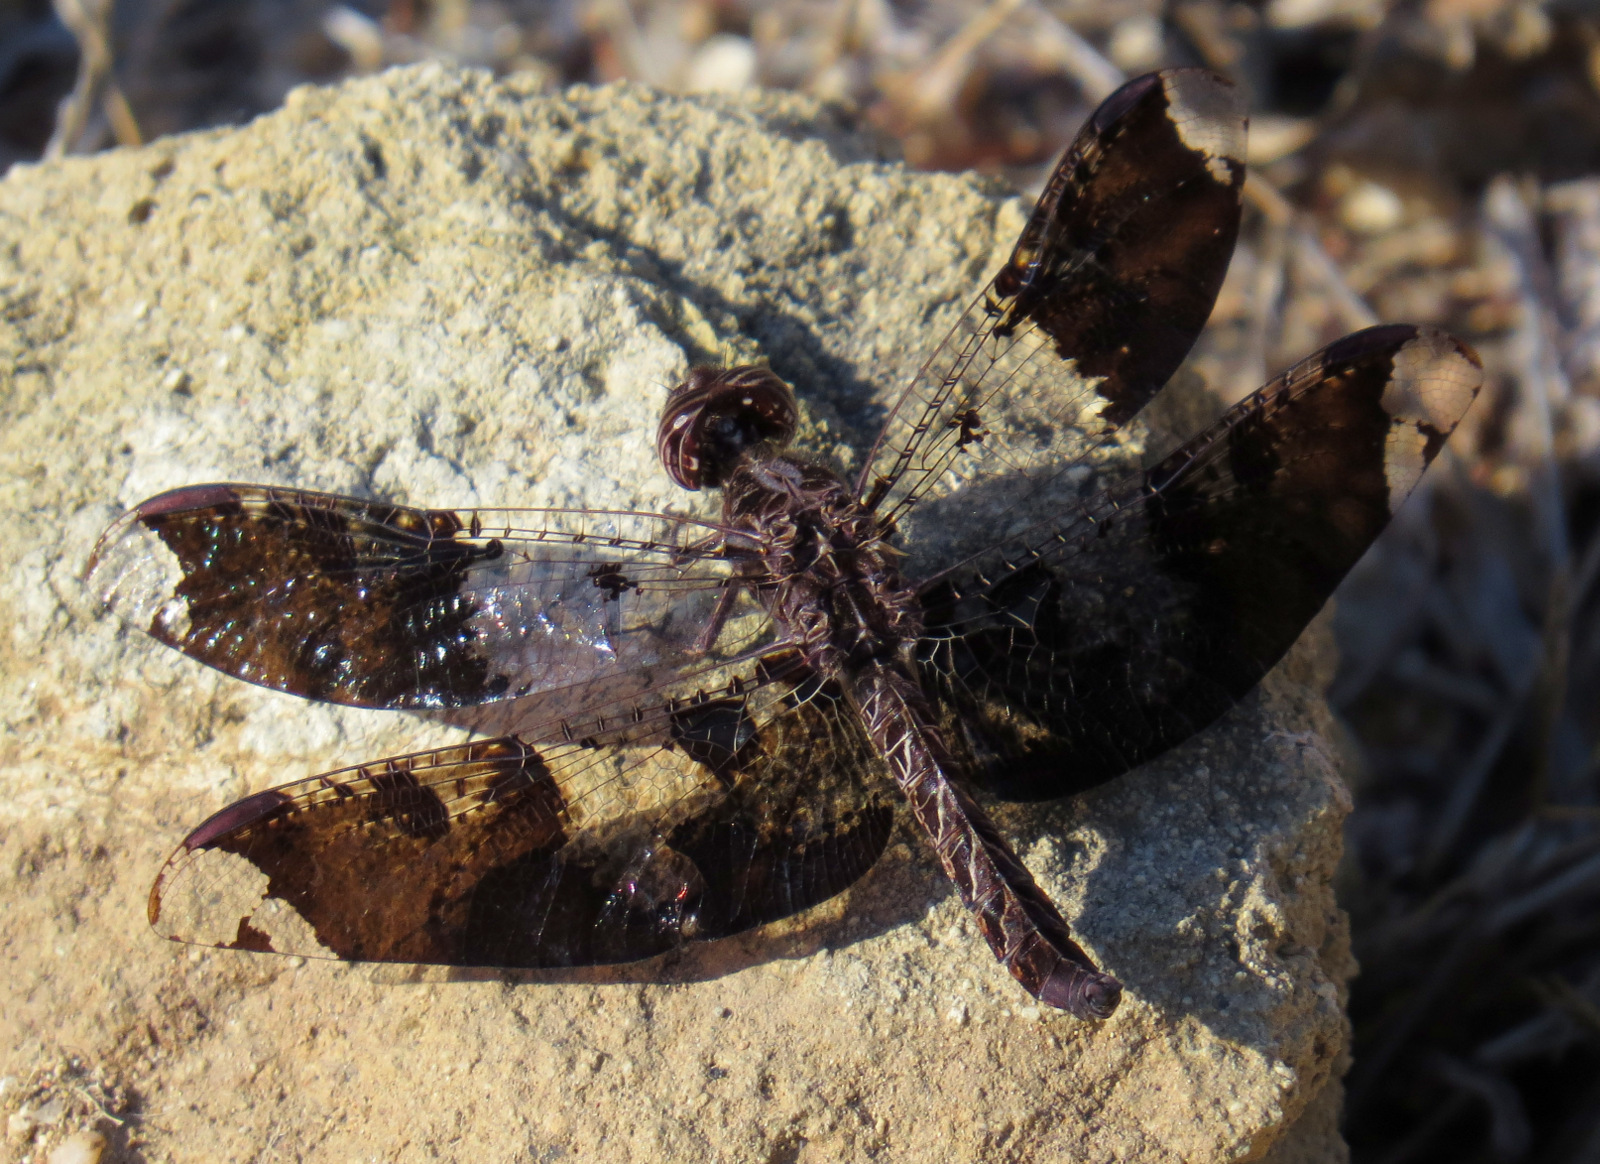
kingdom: Animalia
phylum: Arthropoda
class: Insecta
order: Odonata
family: Libellulidae
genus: Pseudoleon
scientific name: Pseudoleon superbus
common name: Filigree skimmer
